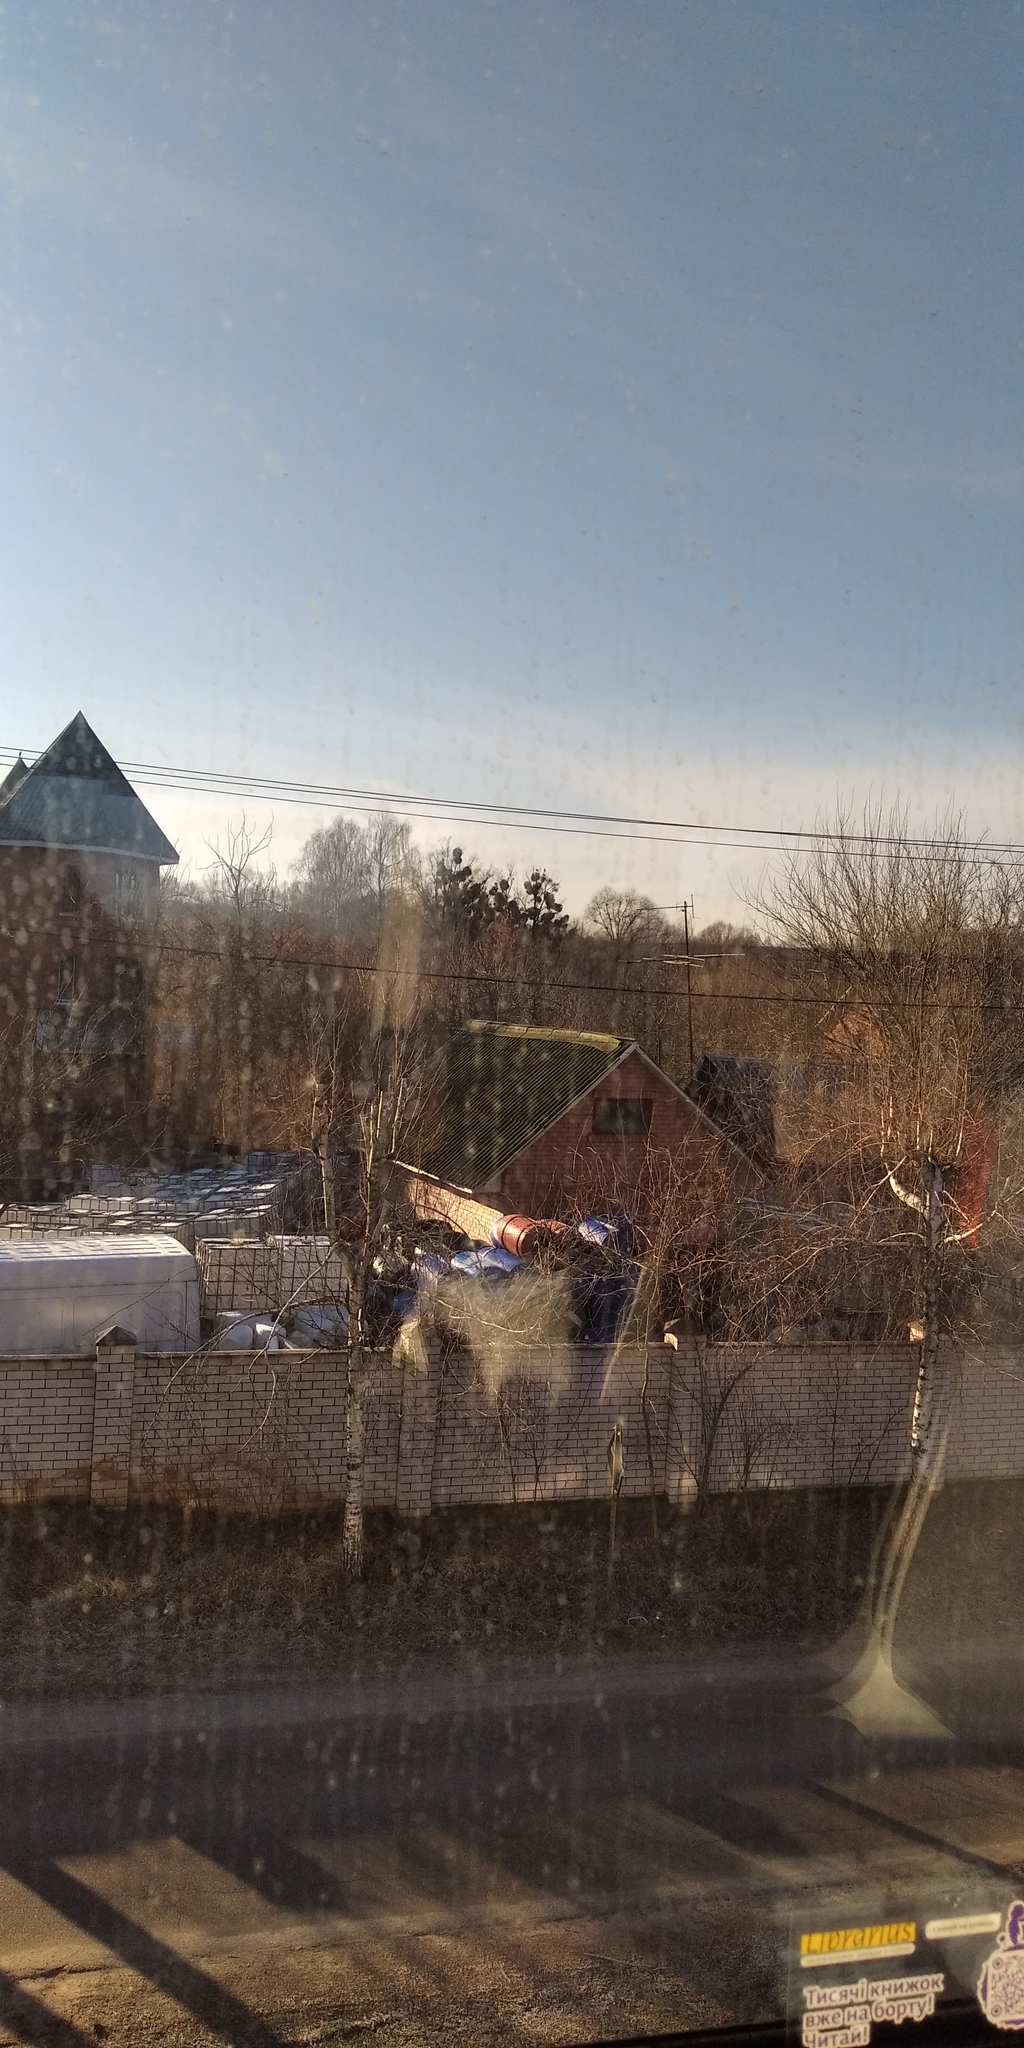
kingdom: Plantae
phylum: Tracheophyta
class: Magnoliopsida
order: Santalales
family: Viscaceae
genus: Viscum
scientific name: Viscum album
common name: Mistletoe
